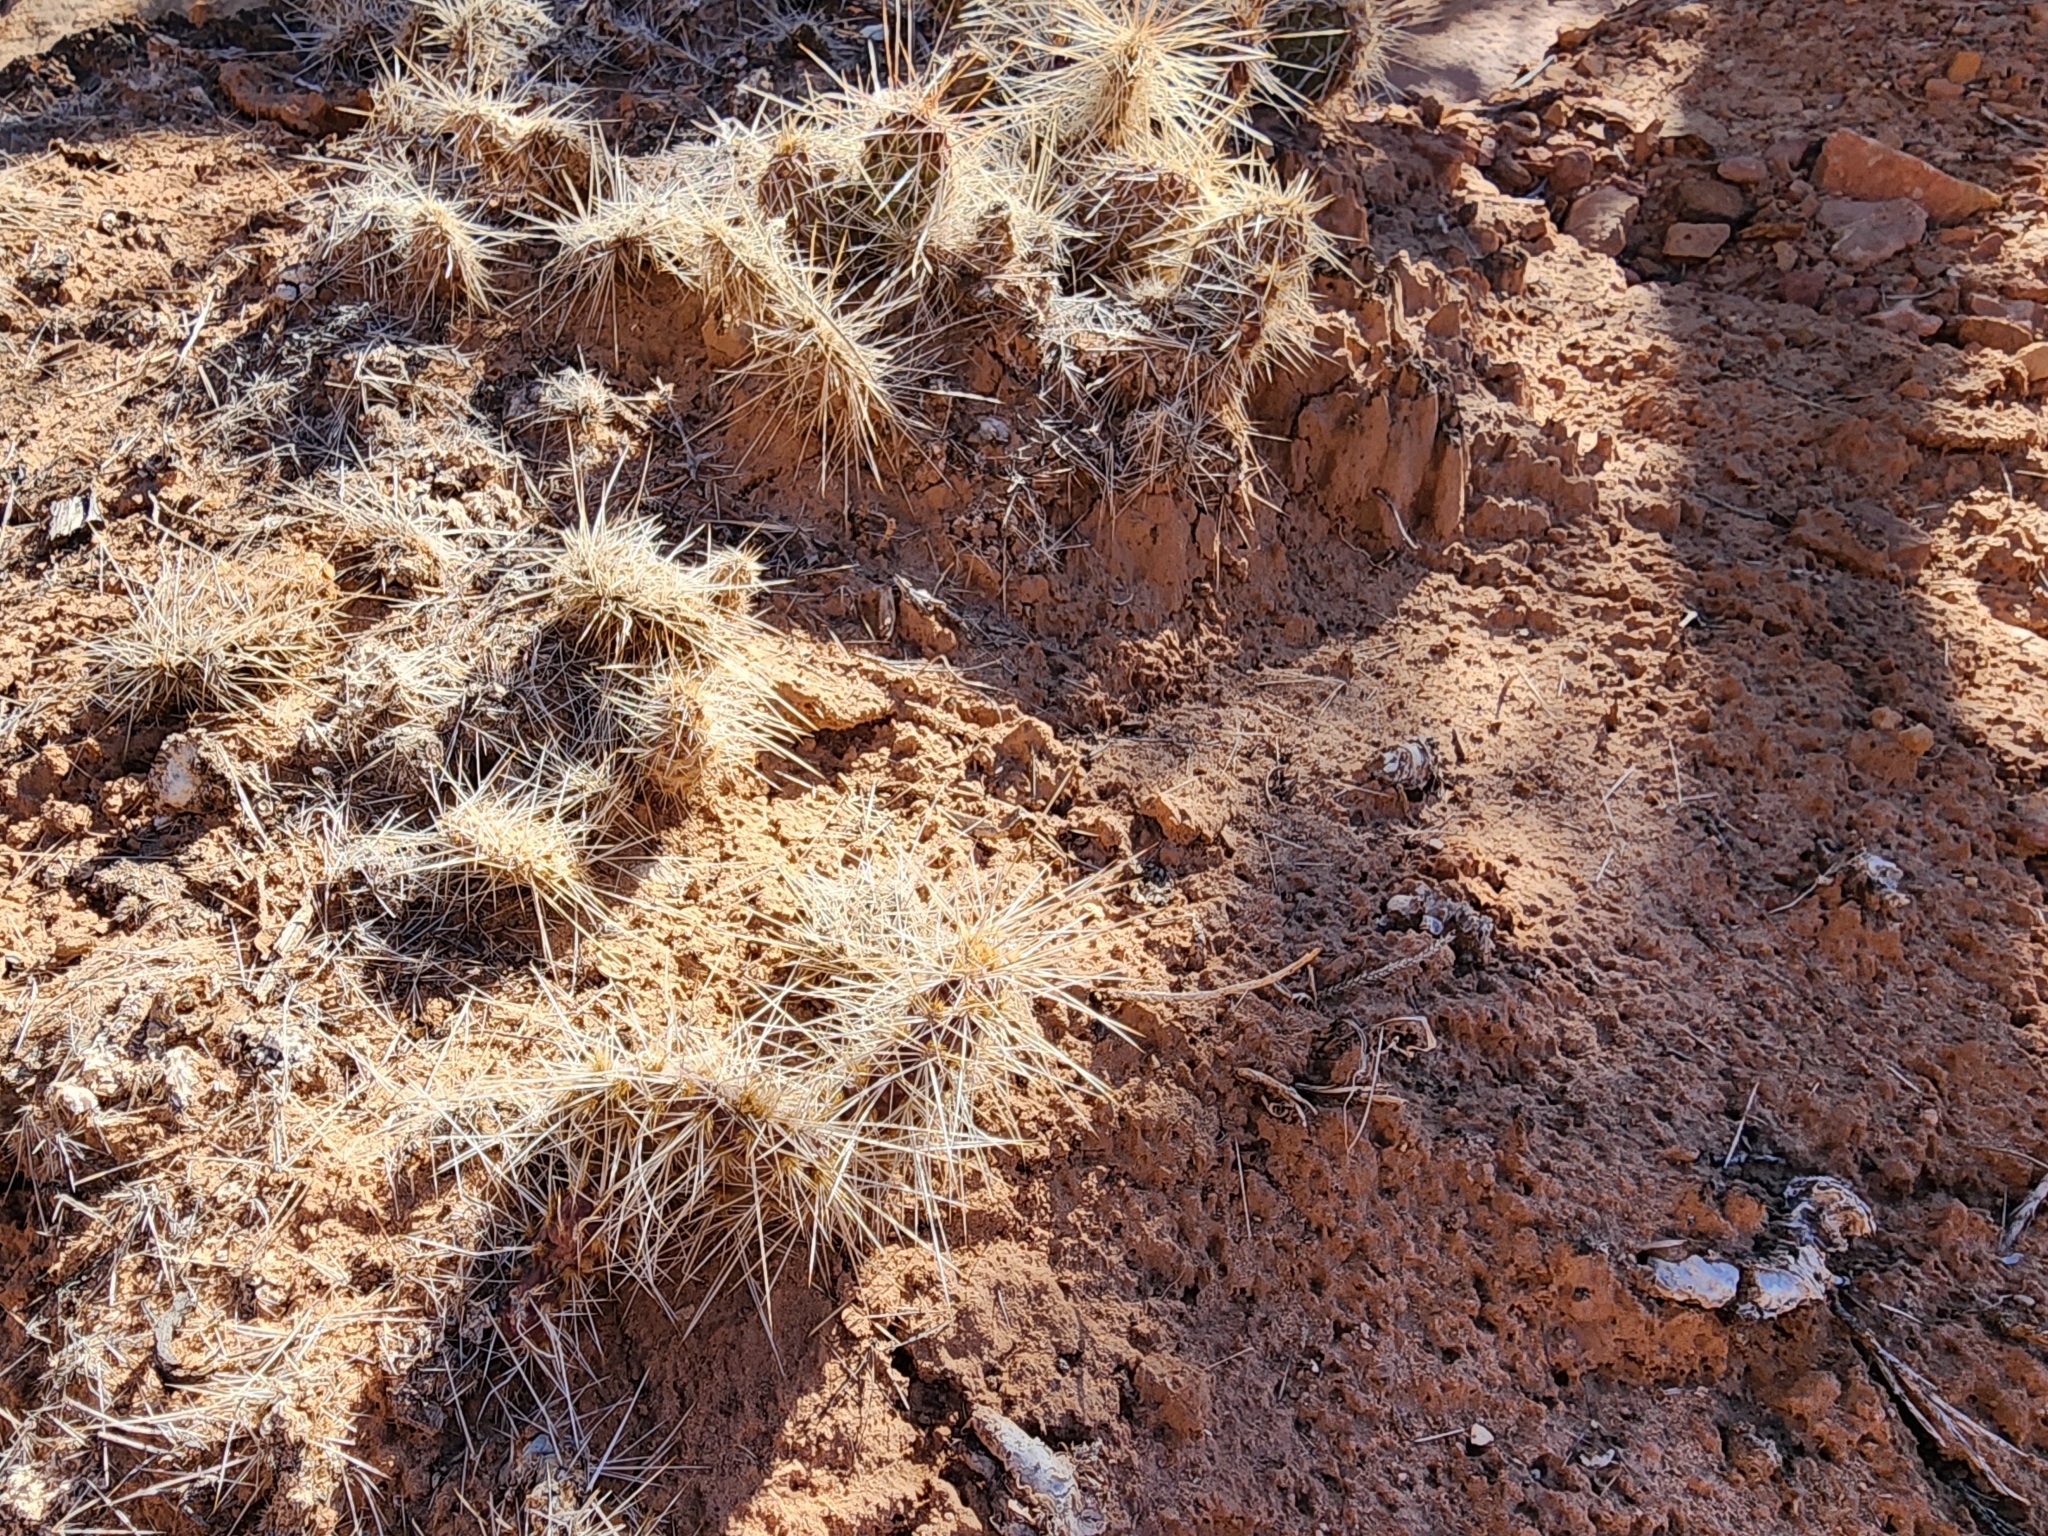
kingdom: Plantae
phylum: Tracheophyta
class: Magnoliopsida
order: Caryophyllales
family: Cactaceae
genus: Opuntia
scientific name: Opuntia polyacantha
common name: Plains prickly-pear
